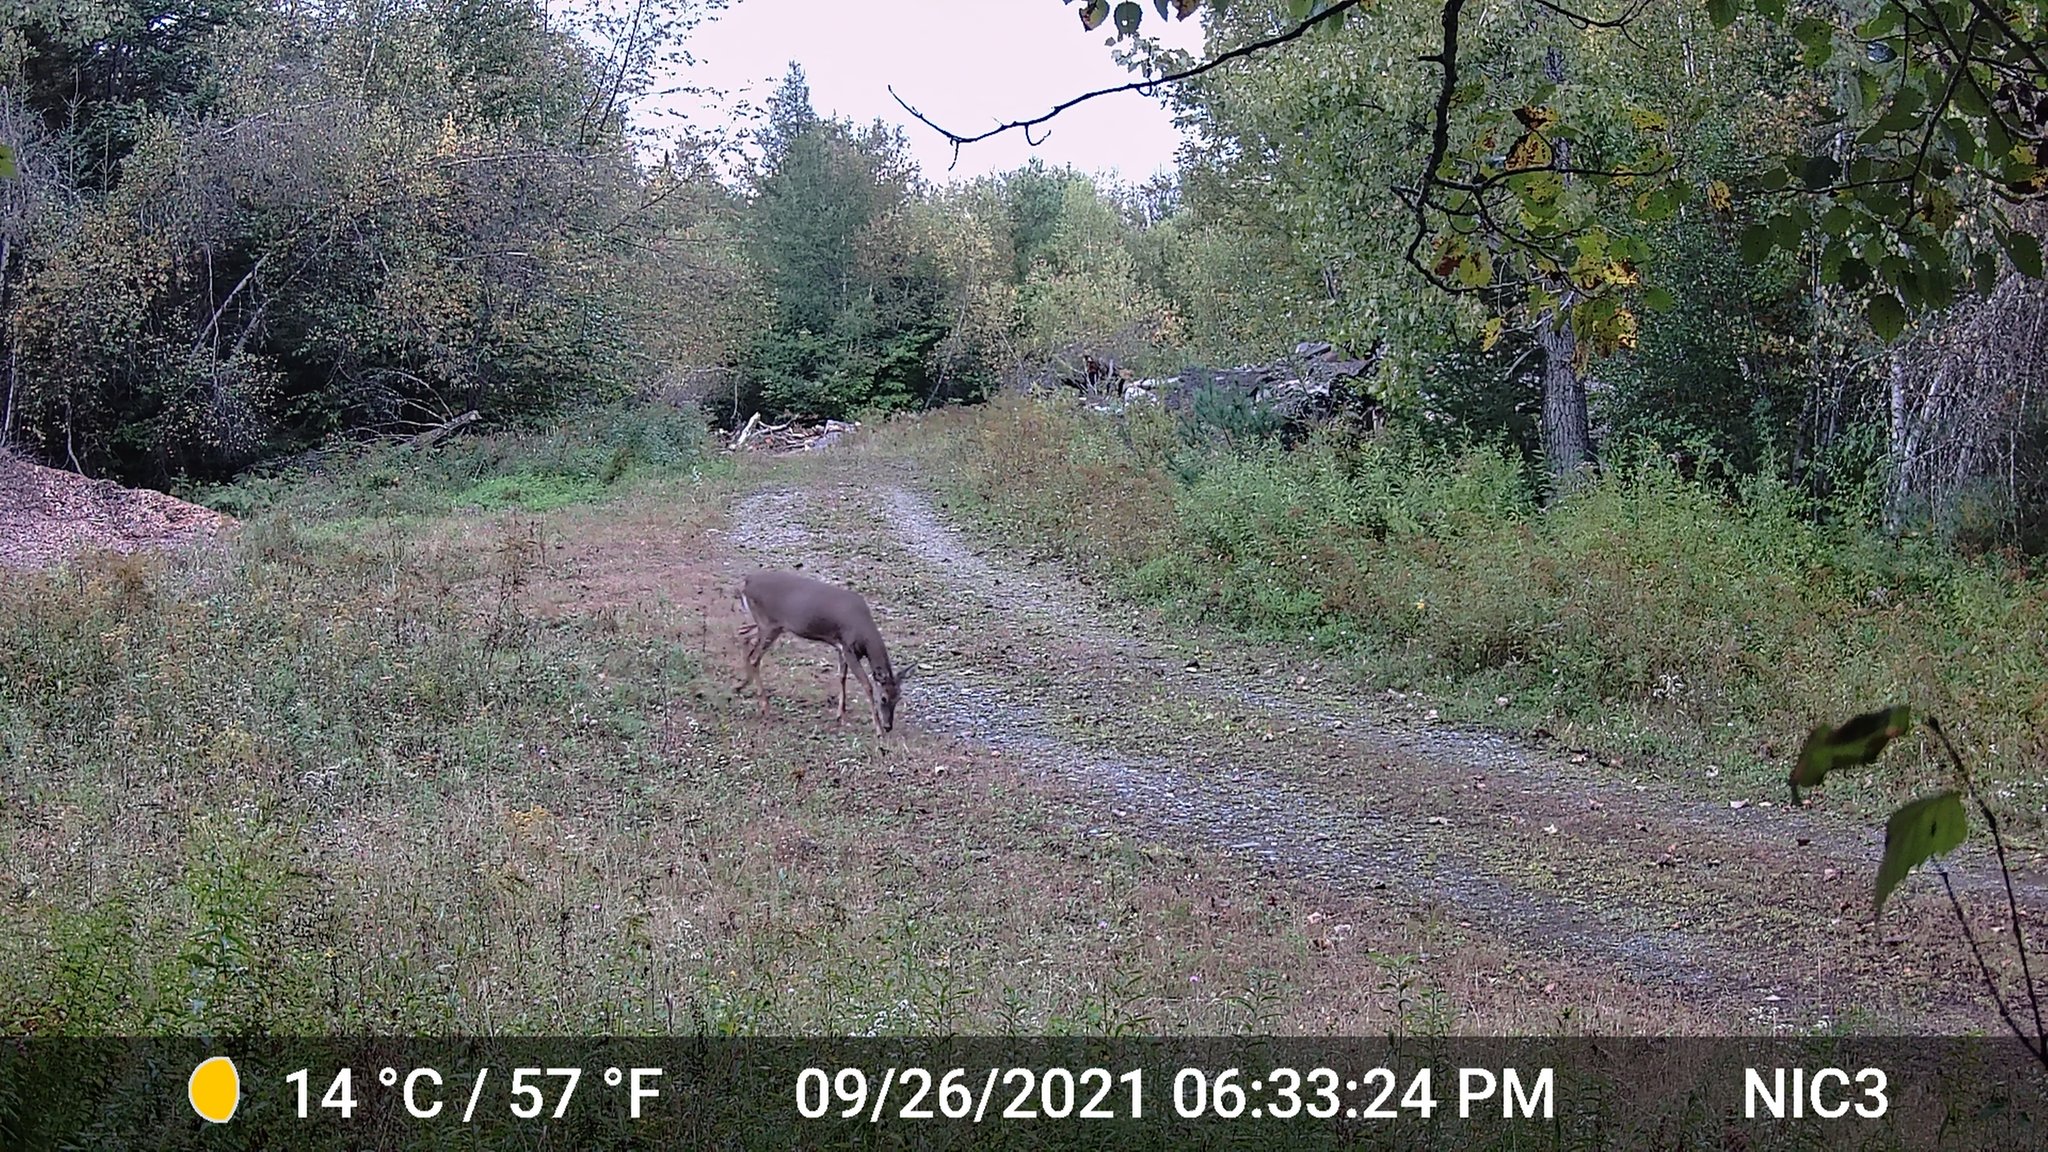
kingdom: Animalia
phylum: Chordata
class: Mammalia
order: Artiodactyla
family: Cervidae
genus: Odocoileus
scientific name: Odocoileus virginianus
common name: White-tailed deer
